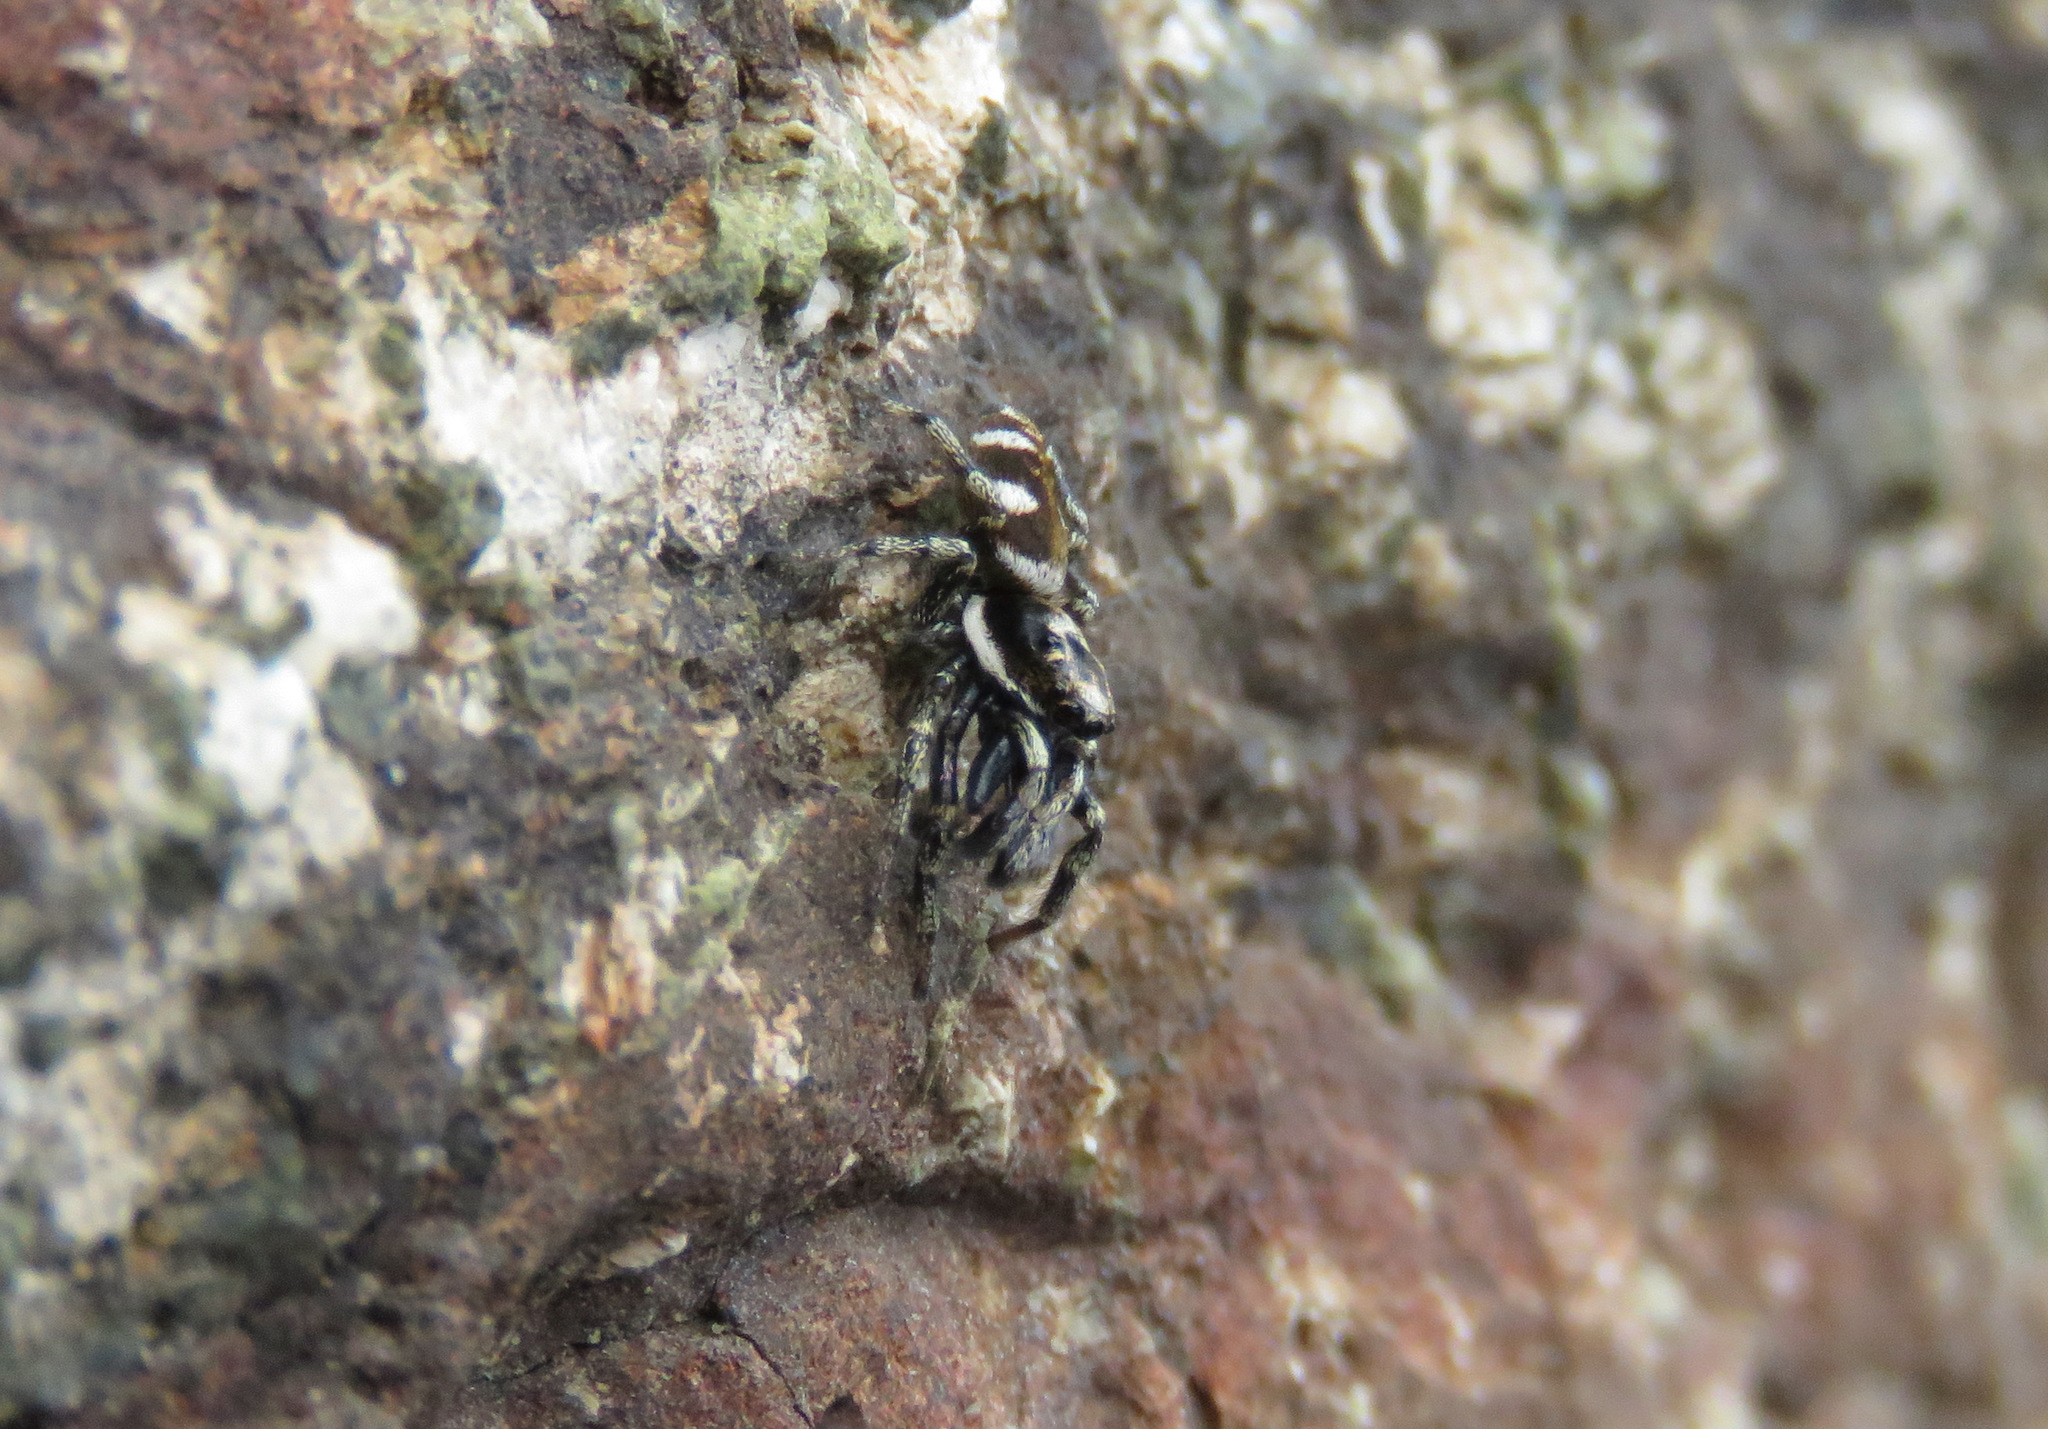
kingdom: Animalia
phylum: Arthropoda
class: Arachnida
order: Araneae
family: Salticidae
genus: Salticus
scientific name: Salticus scenicus
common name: Zebra jumper
